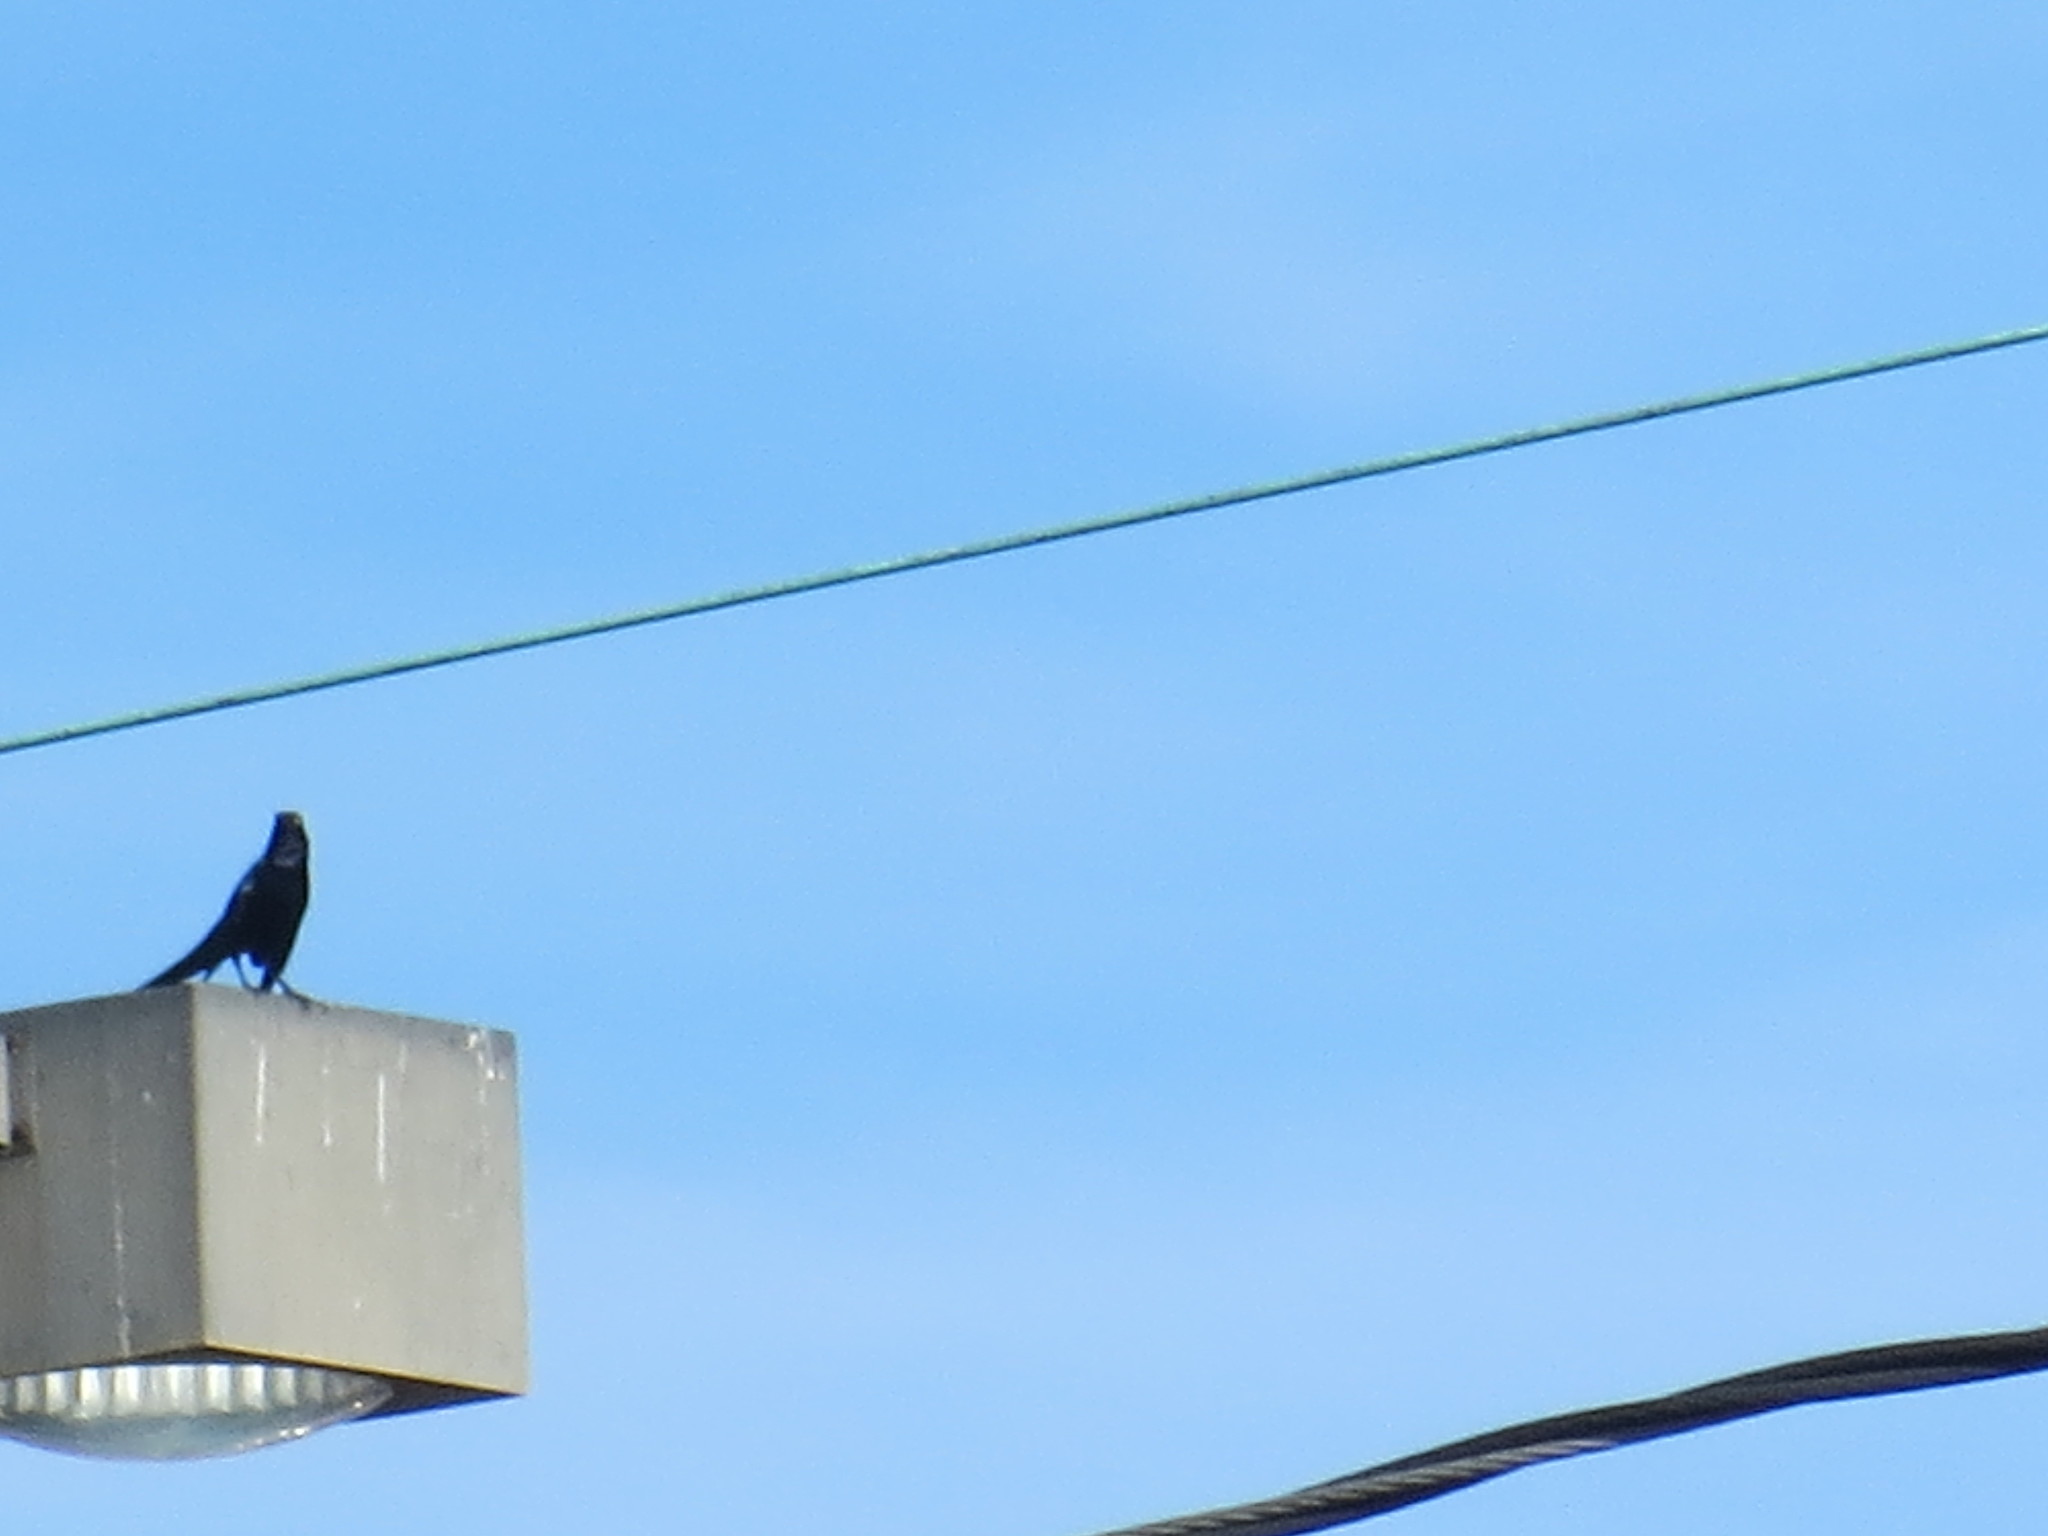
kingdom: Animalia
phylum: Chordata
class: Aves
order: Passeriformes
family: Icteridae
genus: Quiscalus
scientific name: Quiscalus major
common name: Boat-tailed grackle
